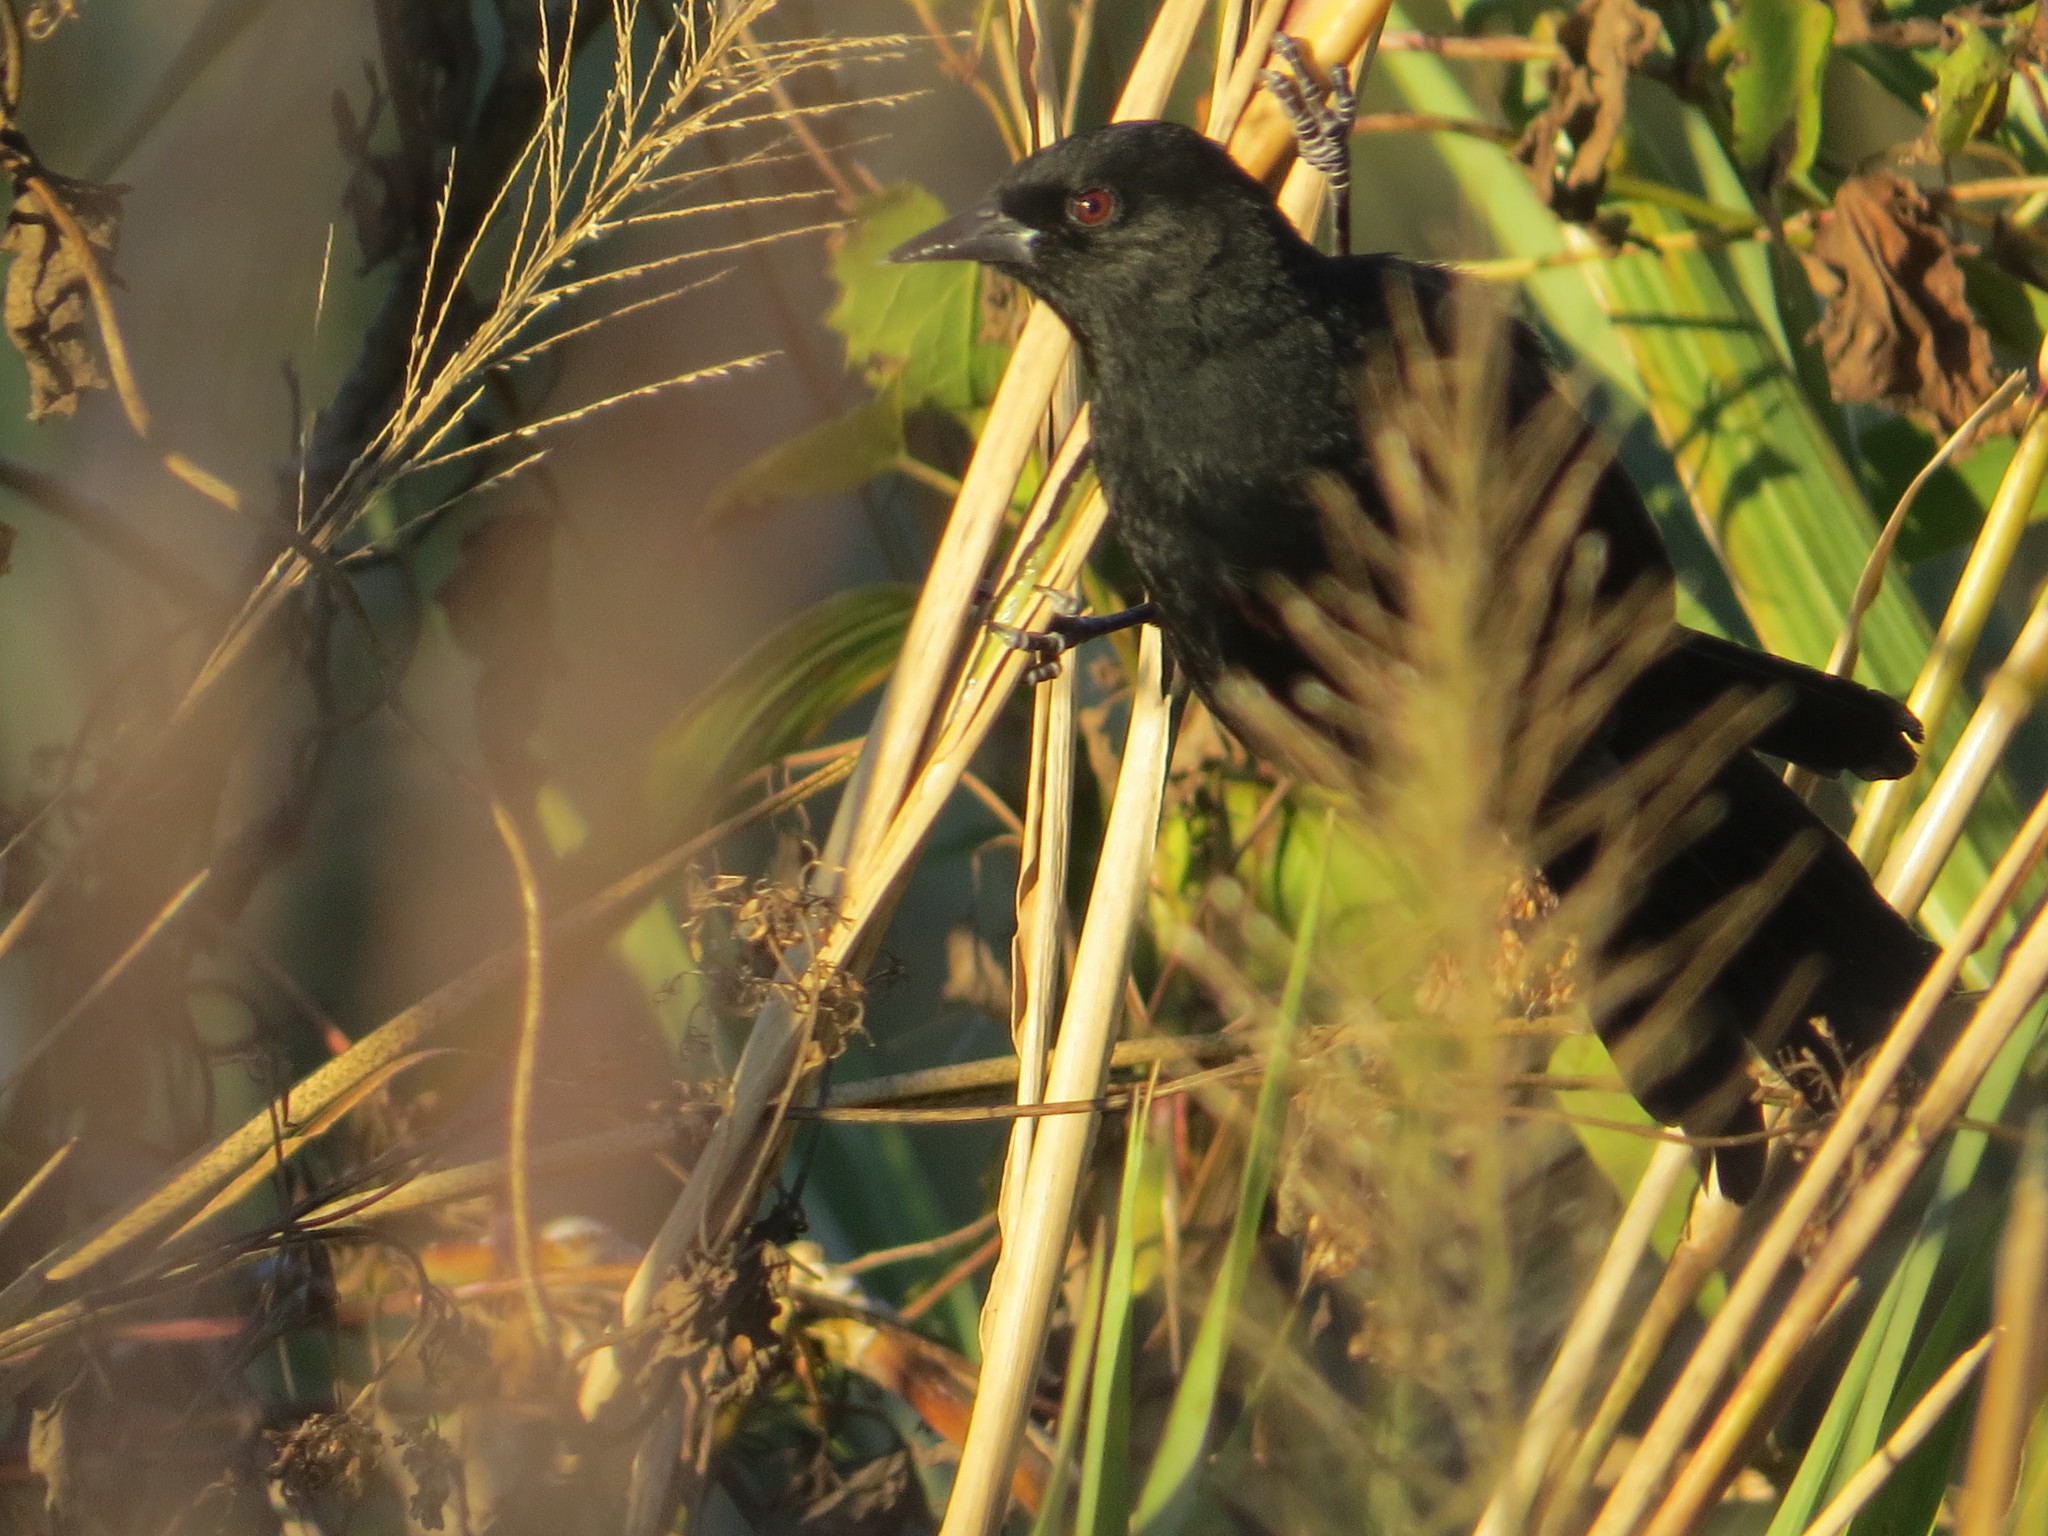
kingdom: Animalia
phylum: Chordata
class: Aves
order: Passeriformes
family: Icteridae
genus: Icterus
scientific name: Icterus cayanensis
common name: Epaulet oriole
